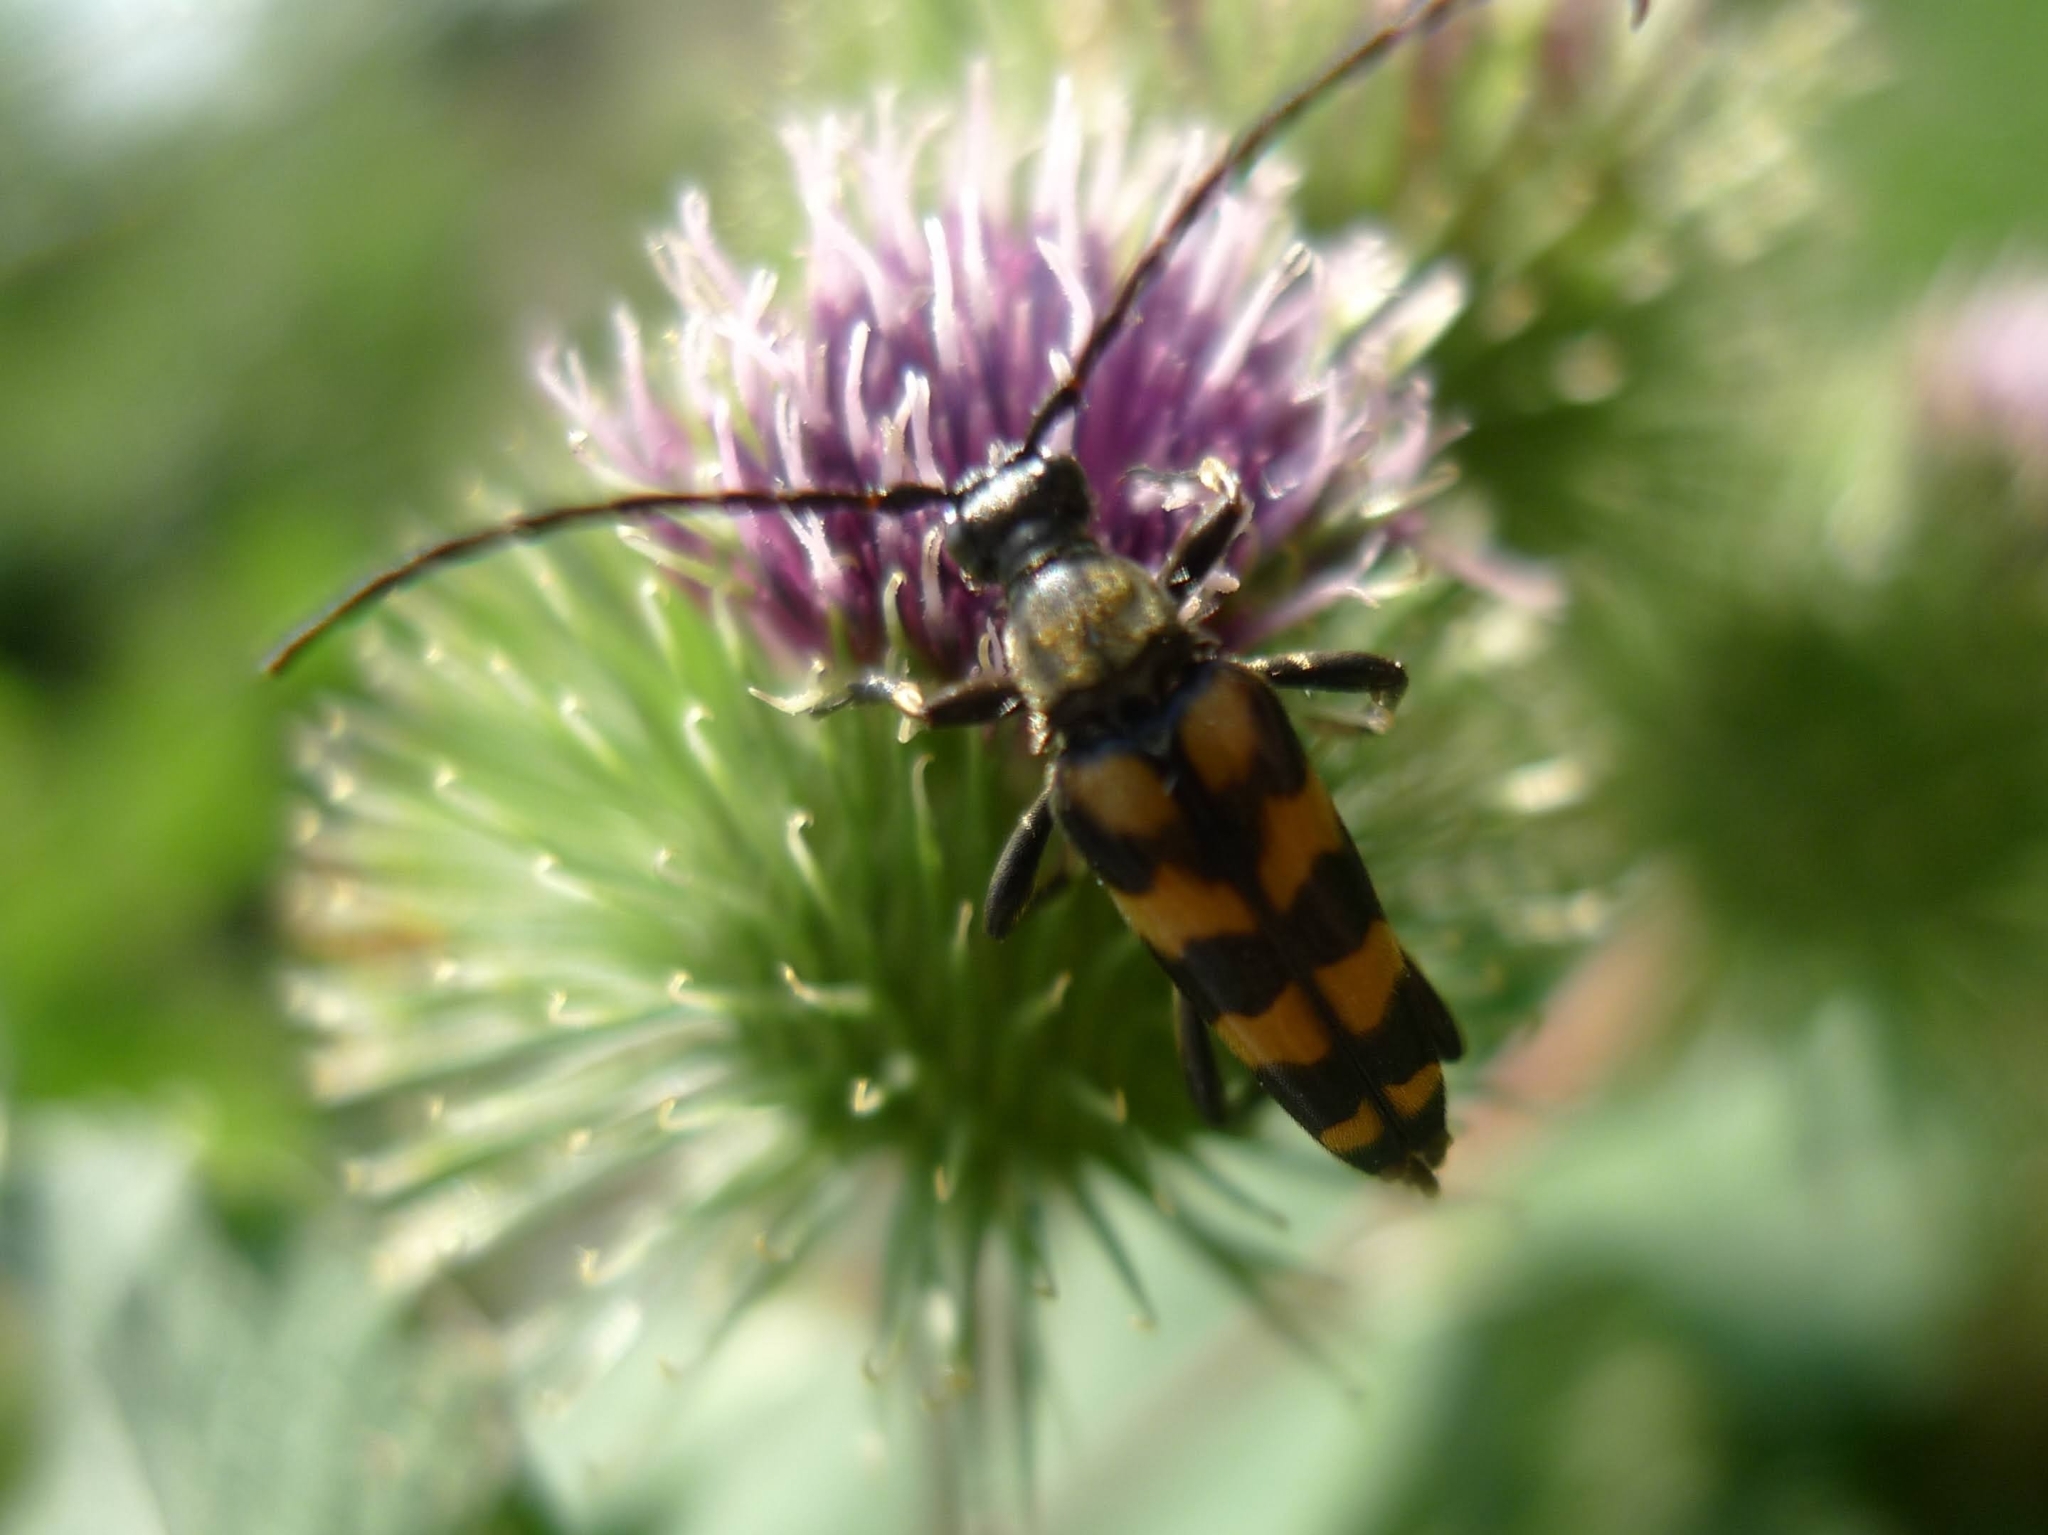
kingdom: Animalia
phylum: Arthropoda
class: Insecta
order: Coleoptera
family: Cerambycidae
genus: Leptura
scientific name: Leptura quadrifasciata
